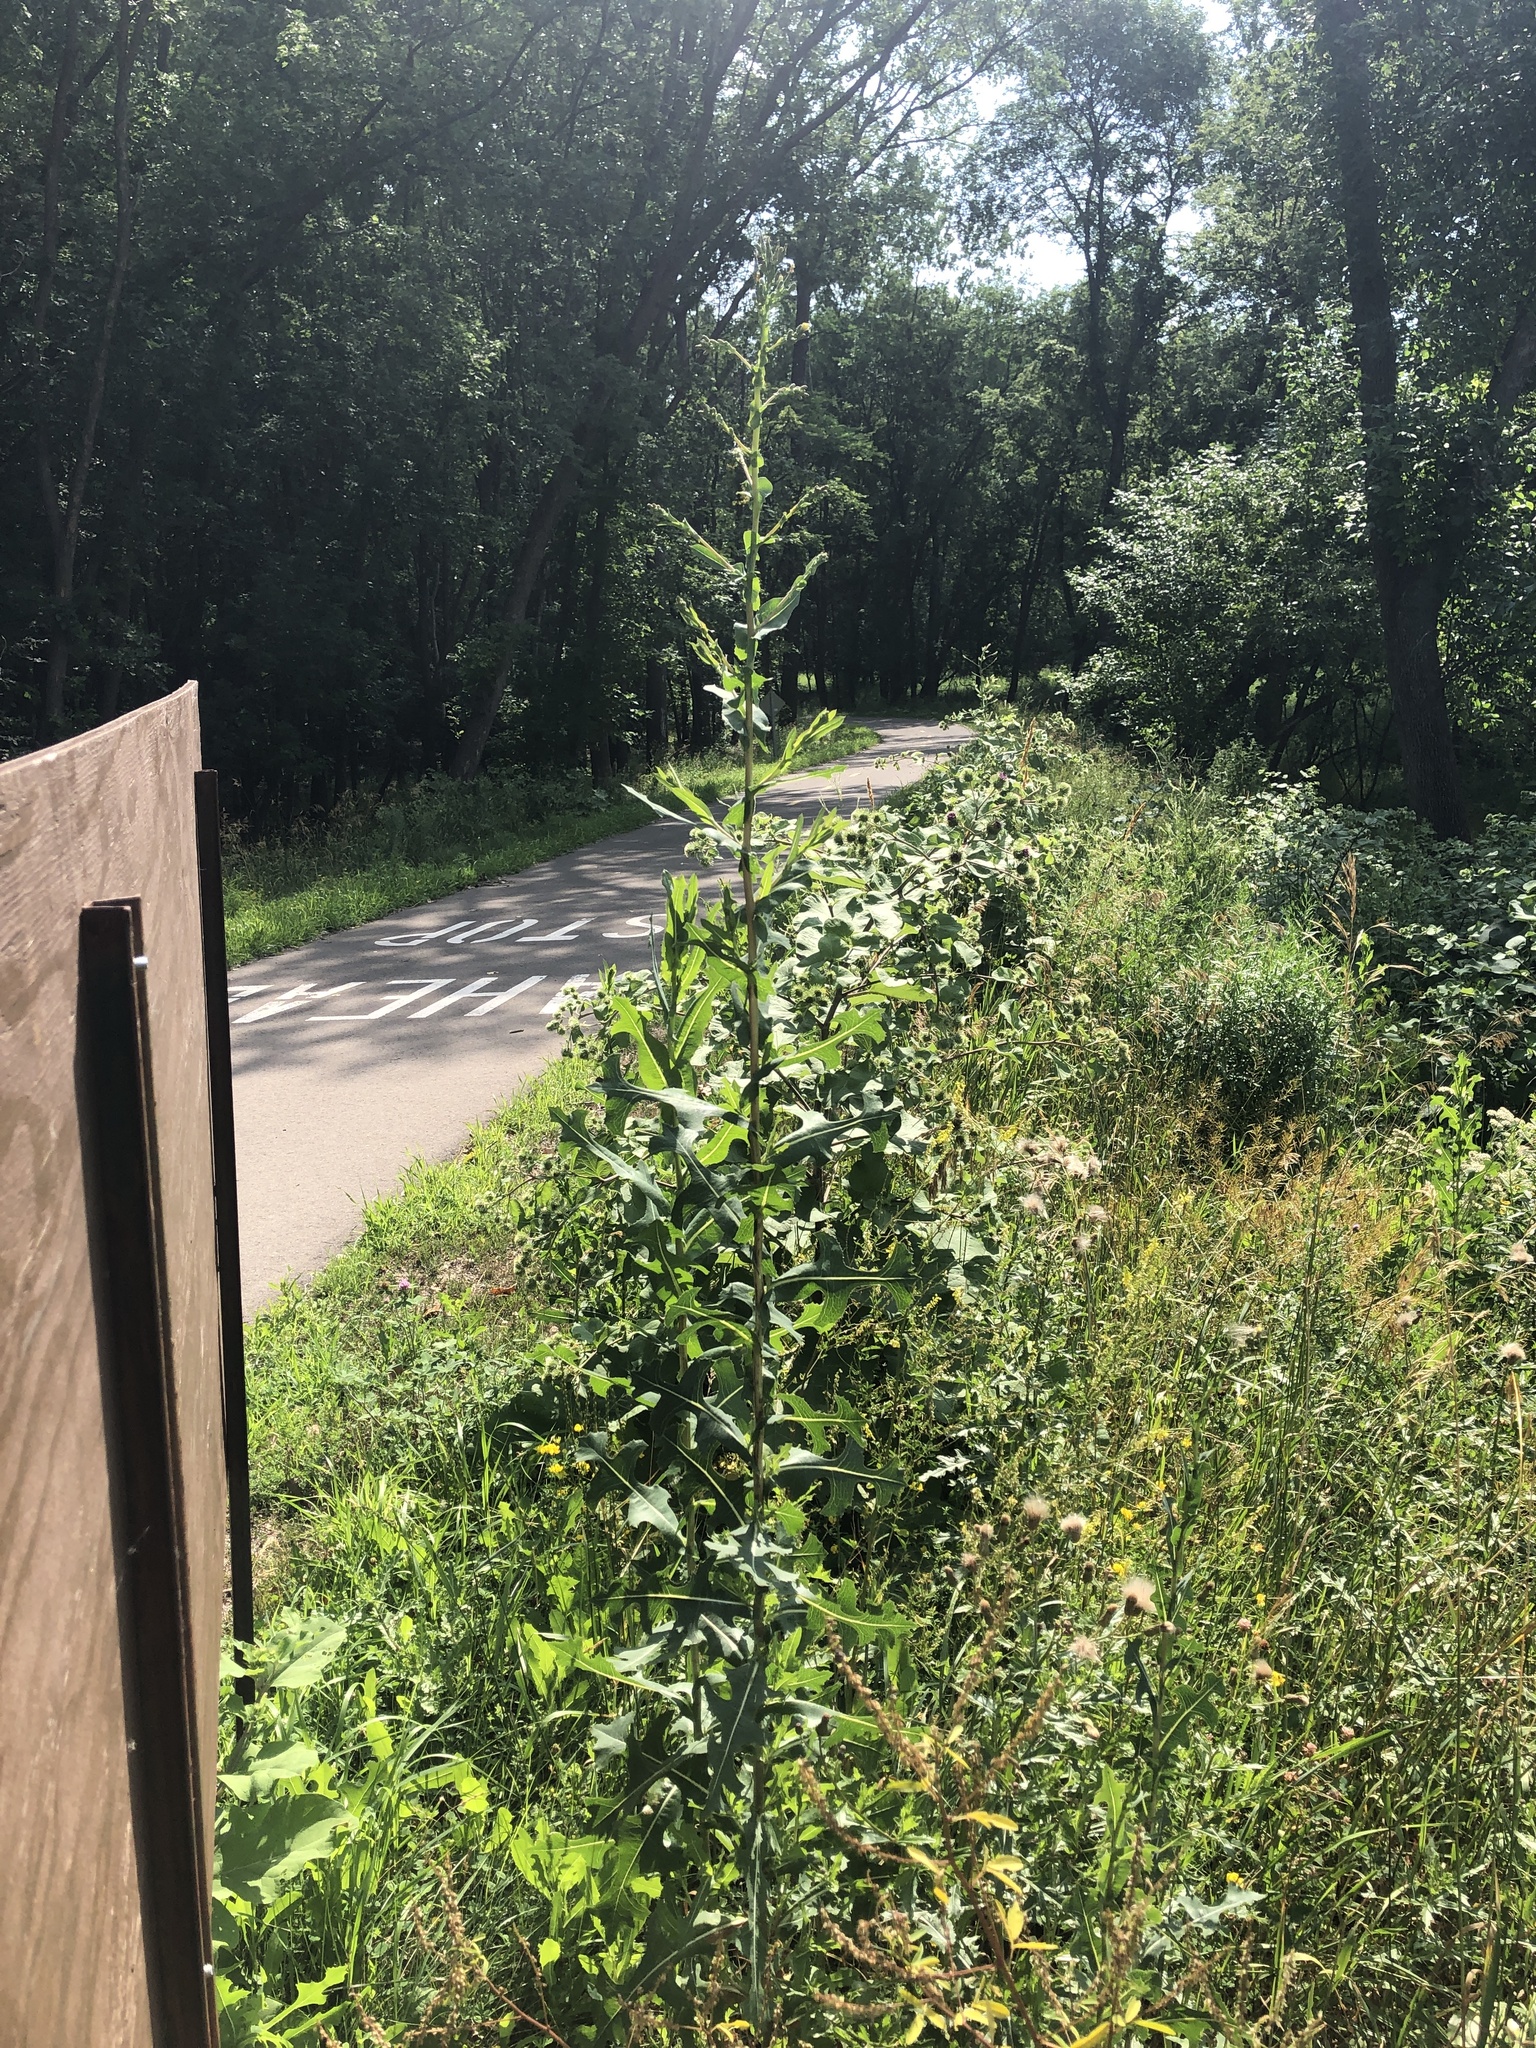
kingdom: Plantae
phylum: Tracheophyta
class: Magnoliopsida
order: Asterales
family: Asteraceae
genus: Lactuca
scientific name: Lactuca canadensis
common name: Canada lettuce
